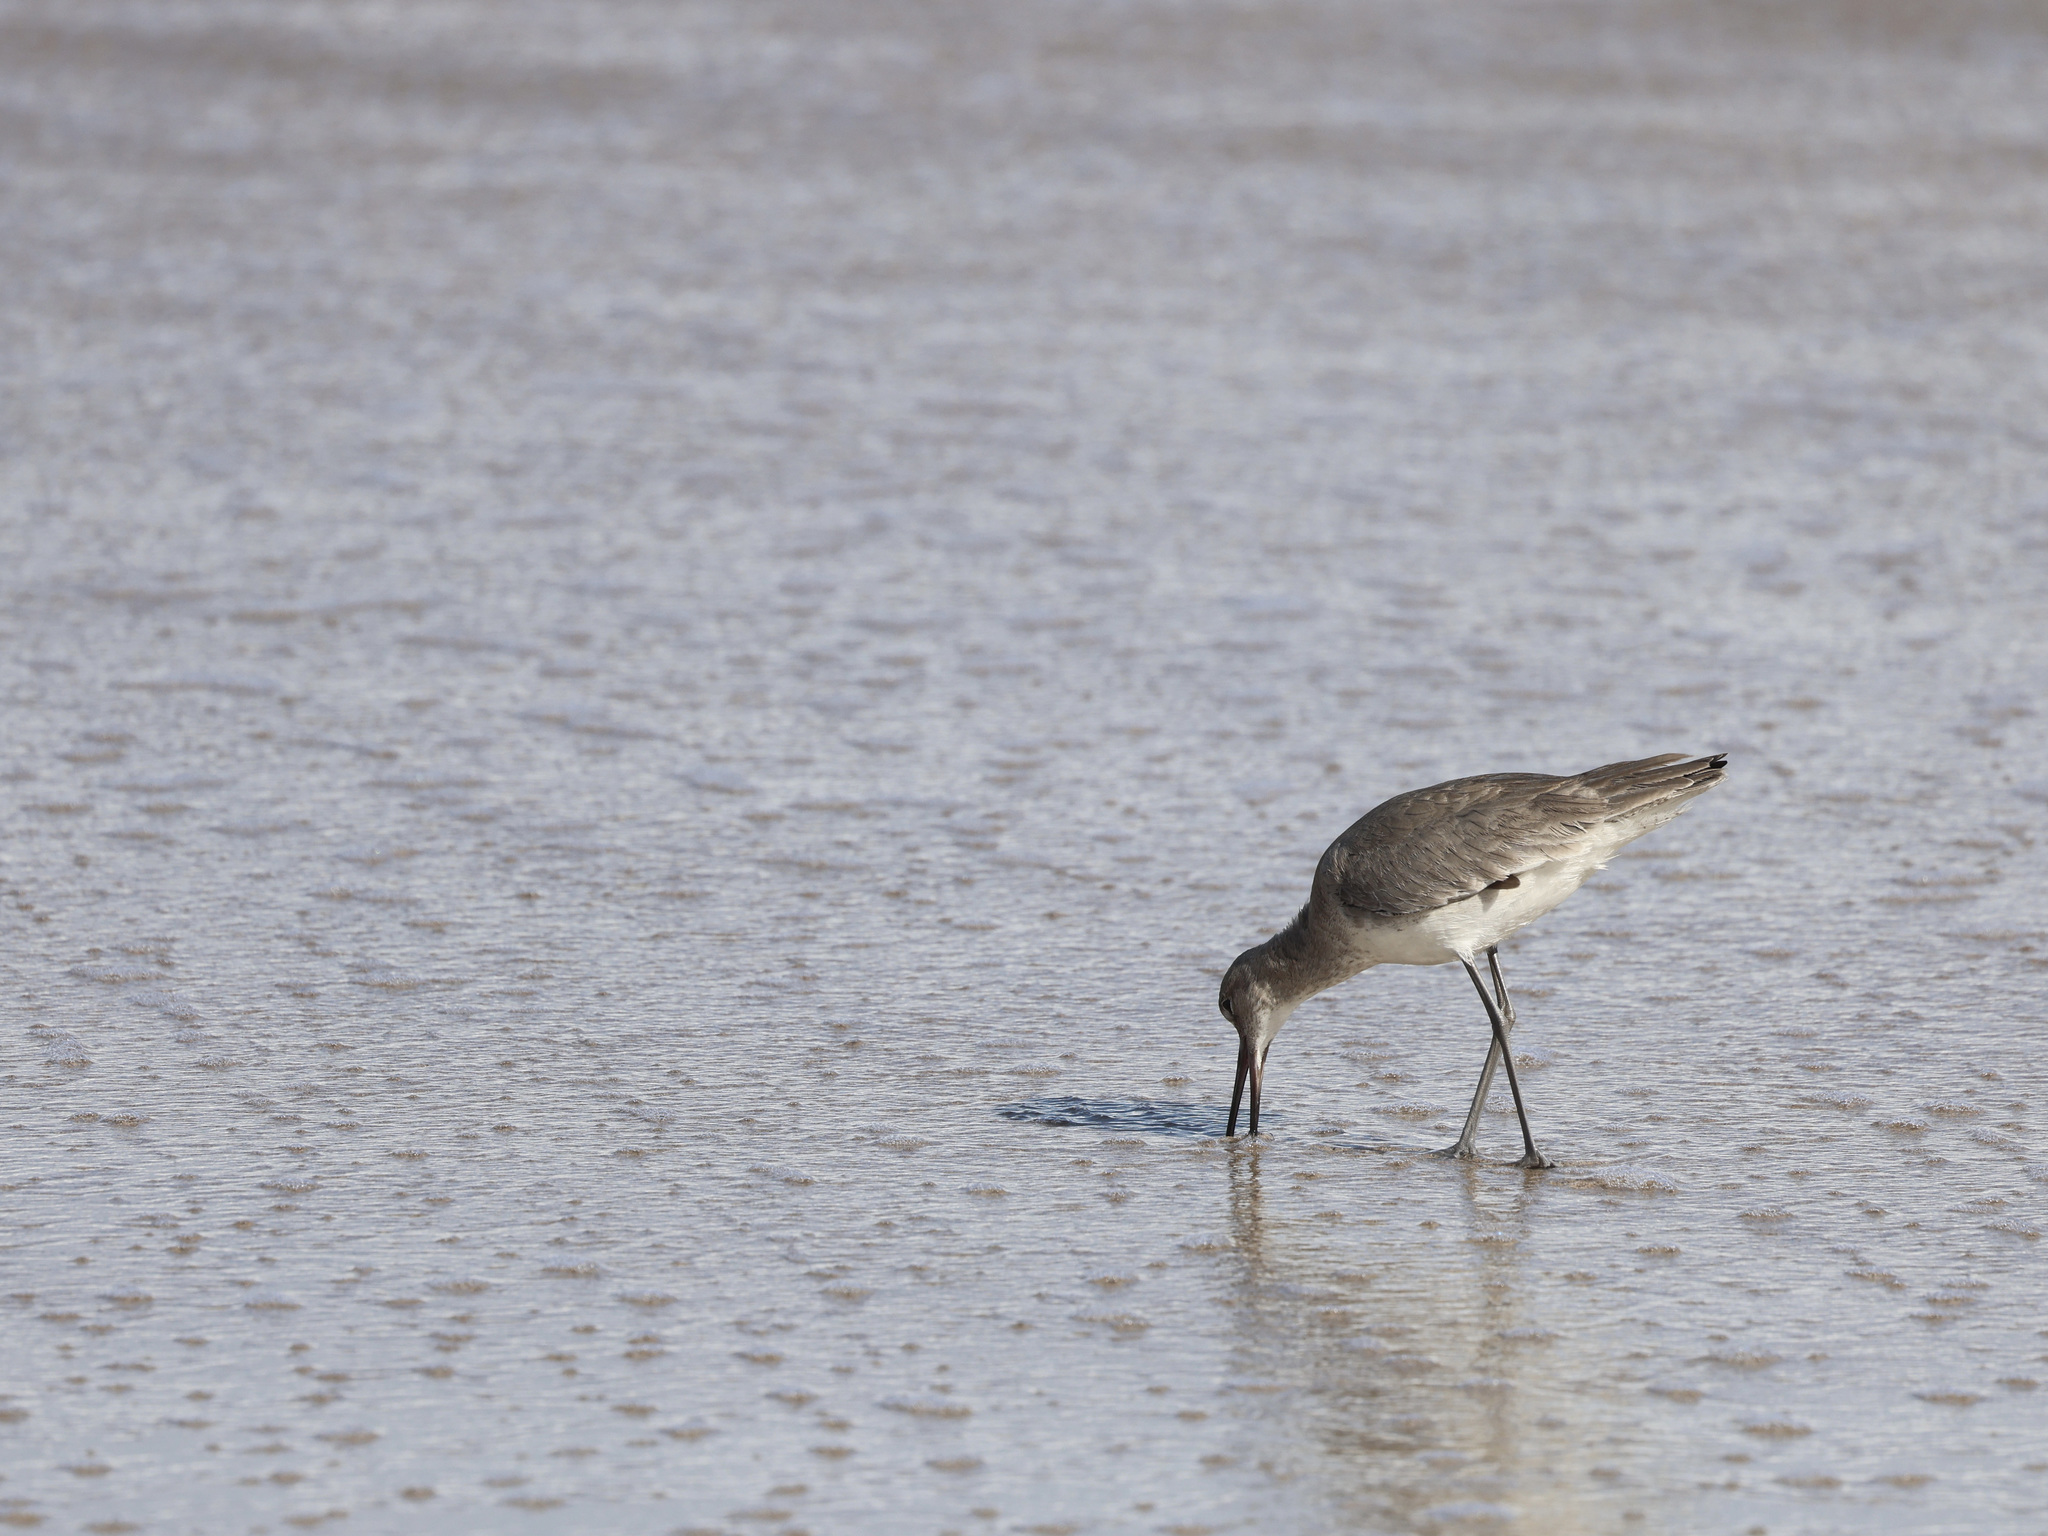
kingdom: Animalia
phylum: Chordata
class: Aves
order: Charadriiformes
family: Scolopacidae
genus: Tringa
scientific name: Tringa semipalmata
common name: Willet
